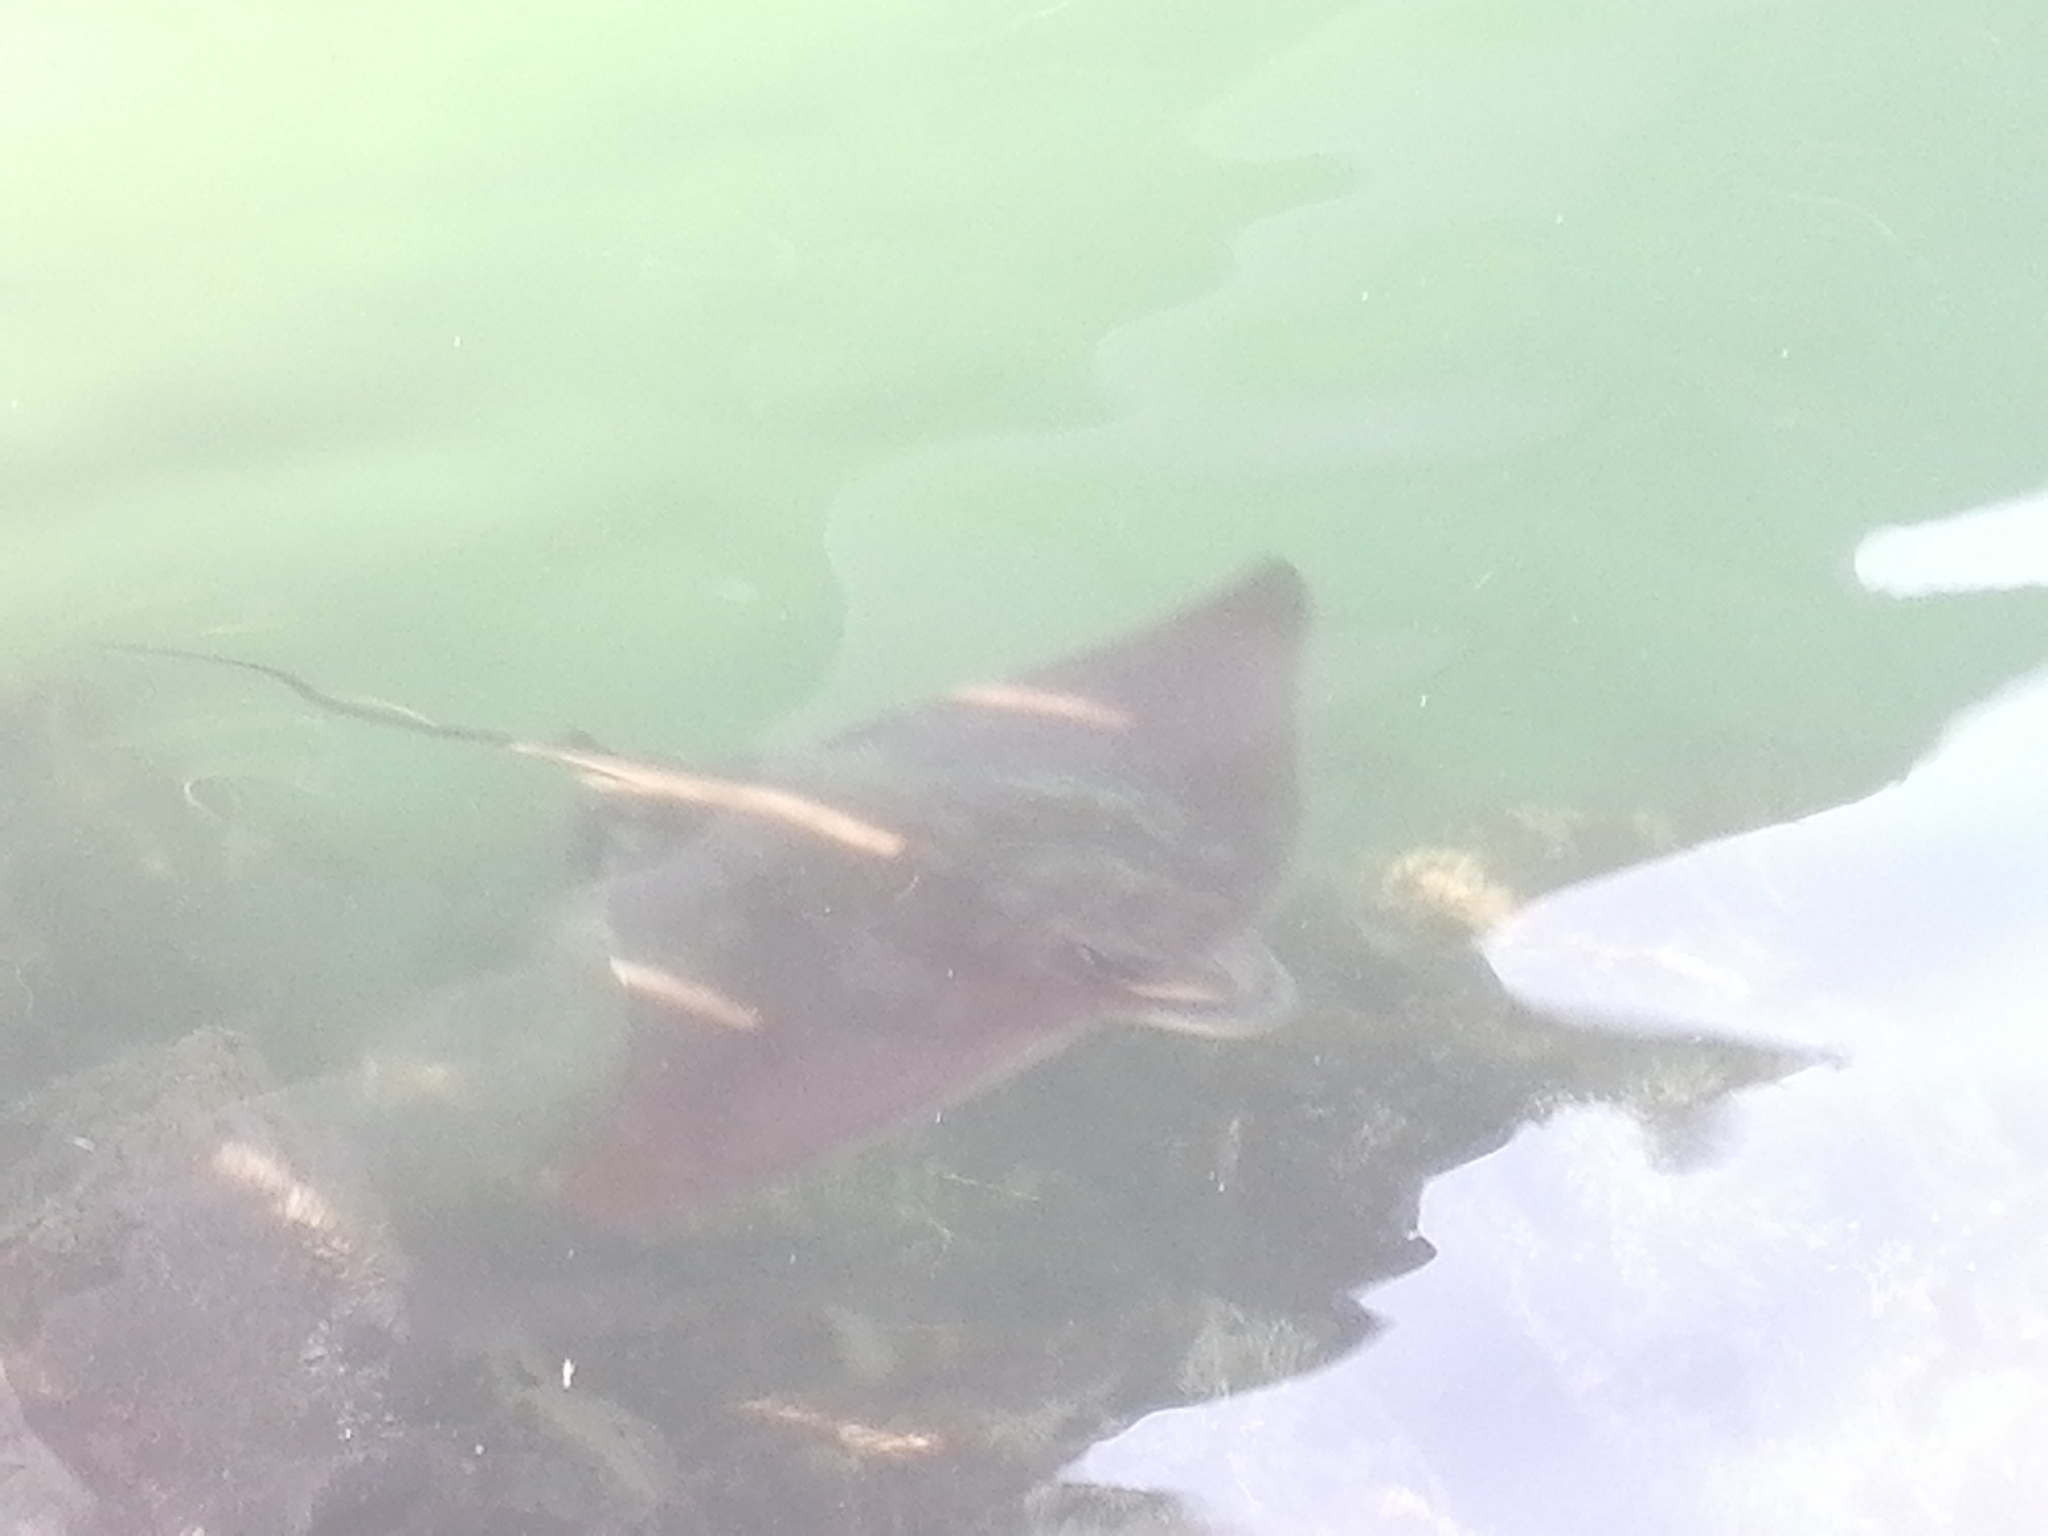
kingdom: Animalia
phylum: Chordata
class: Elasmobranchii
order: Myliobatiformes
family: Myliobatidae
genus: Myliobatis
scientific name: Myliobatis tenuicaudatus
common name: Eagle ray
